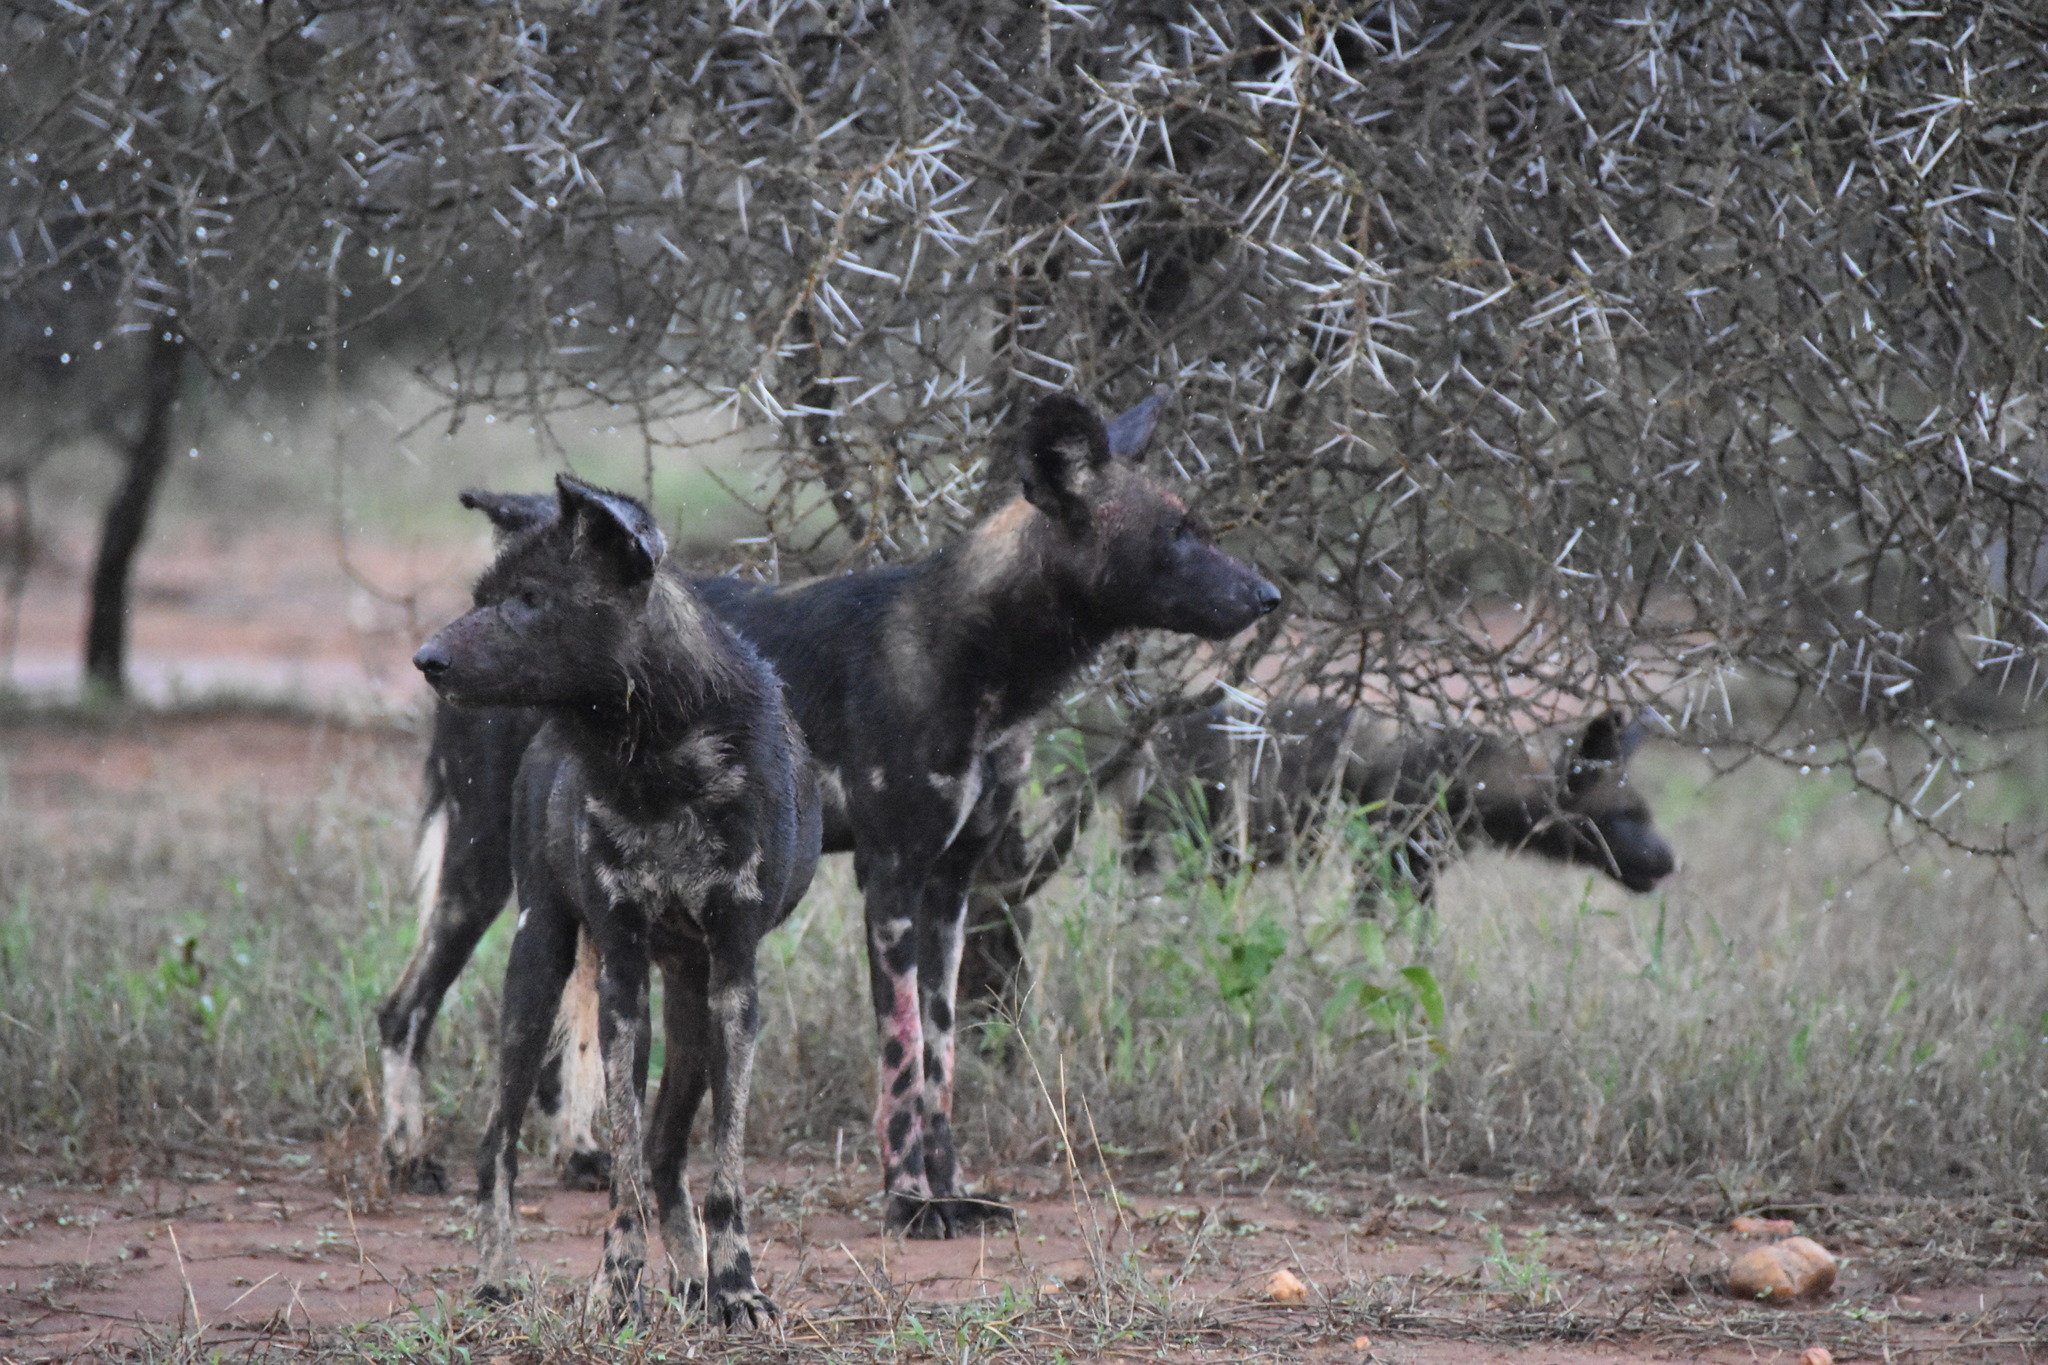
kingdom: Animalia
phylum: Chordata
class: Mammalia
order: Carnivora
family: Canidae
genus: Lycaon
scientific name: Lycaon pictus
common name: African wild dog
